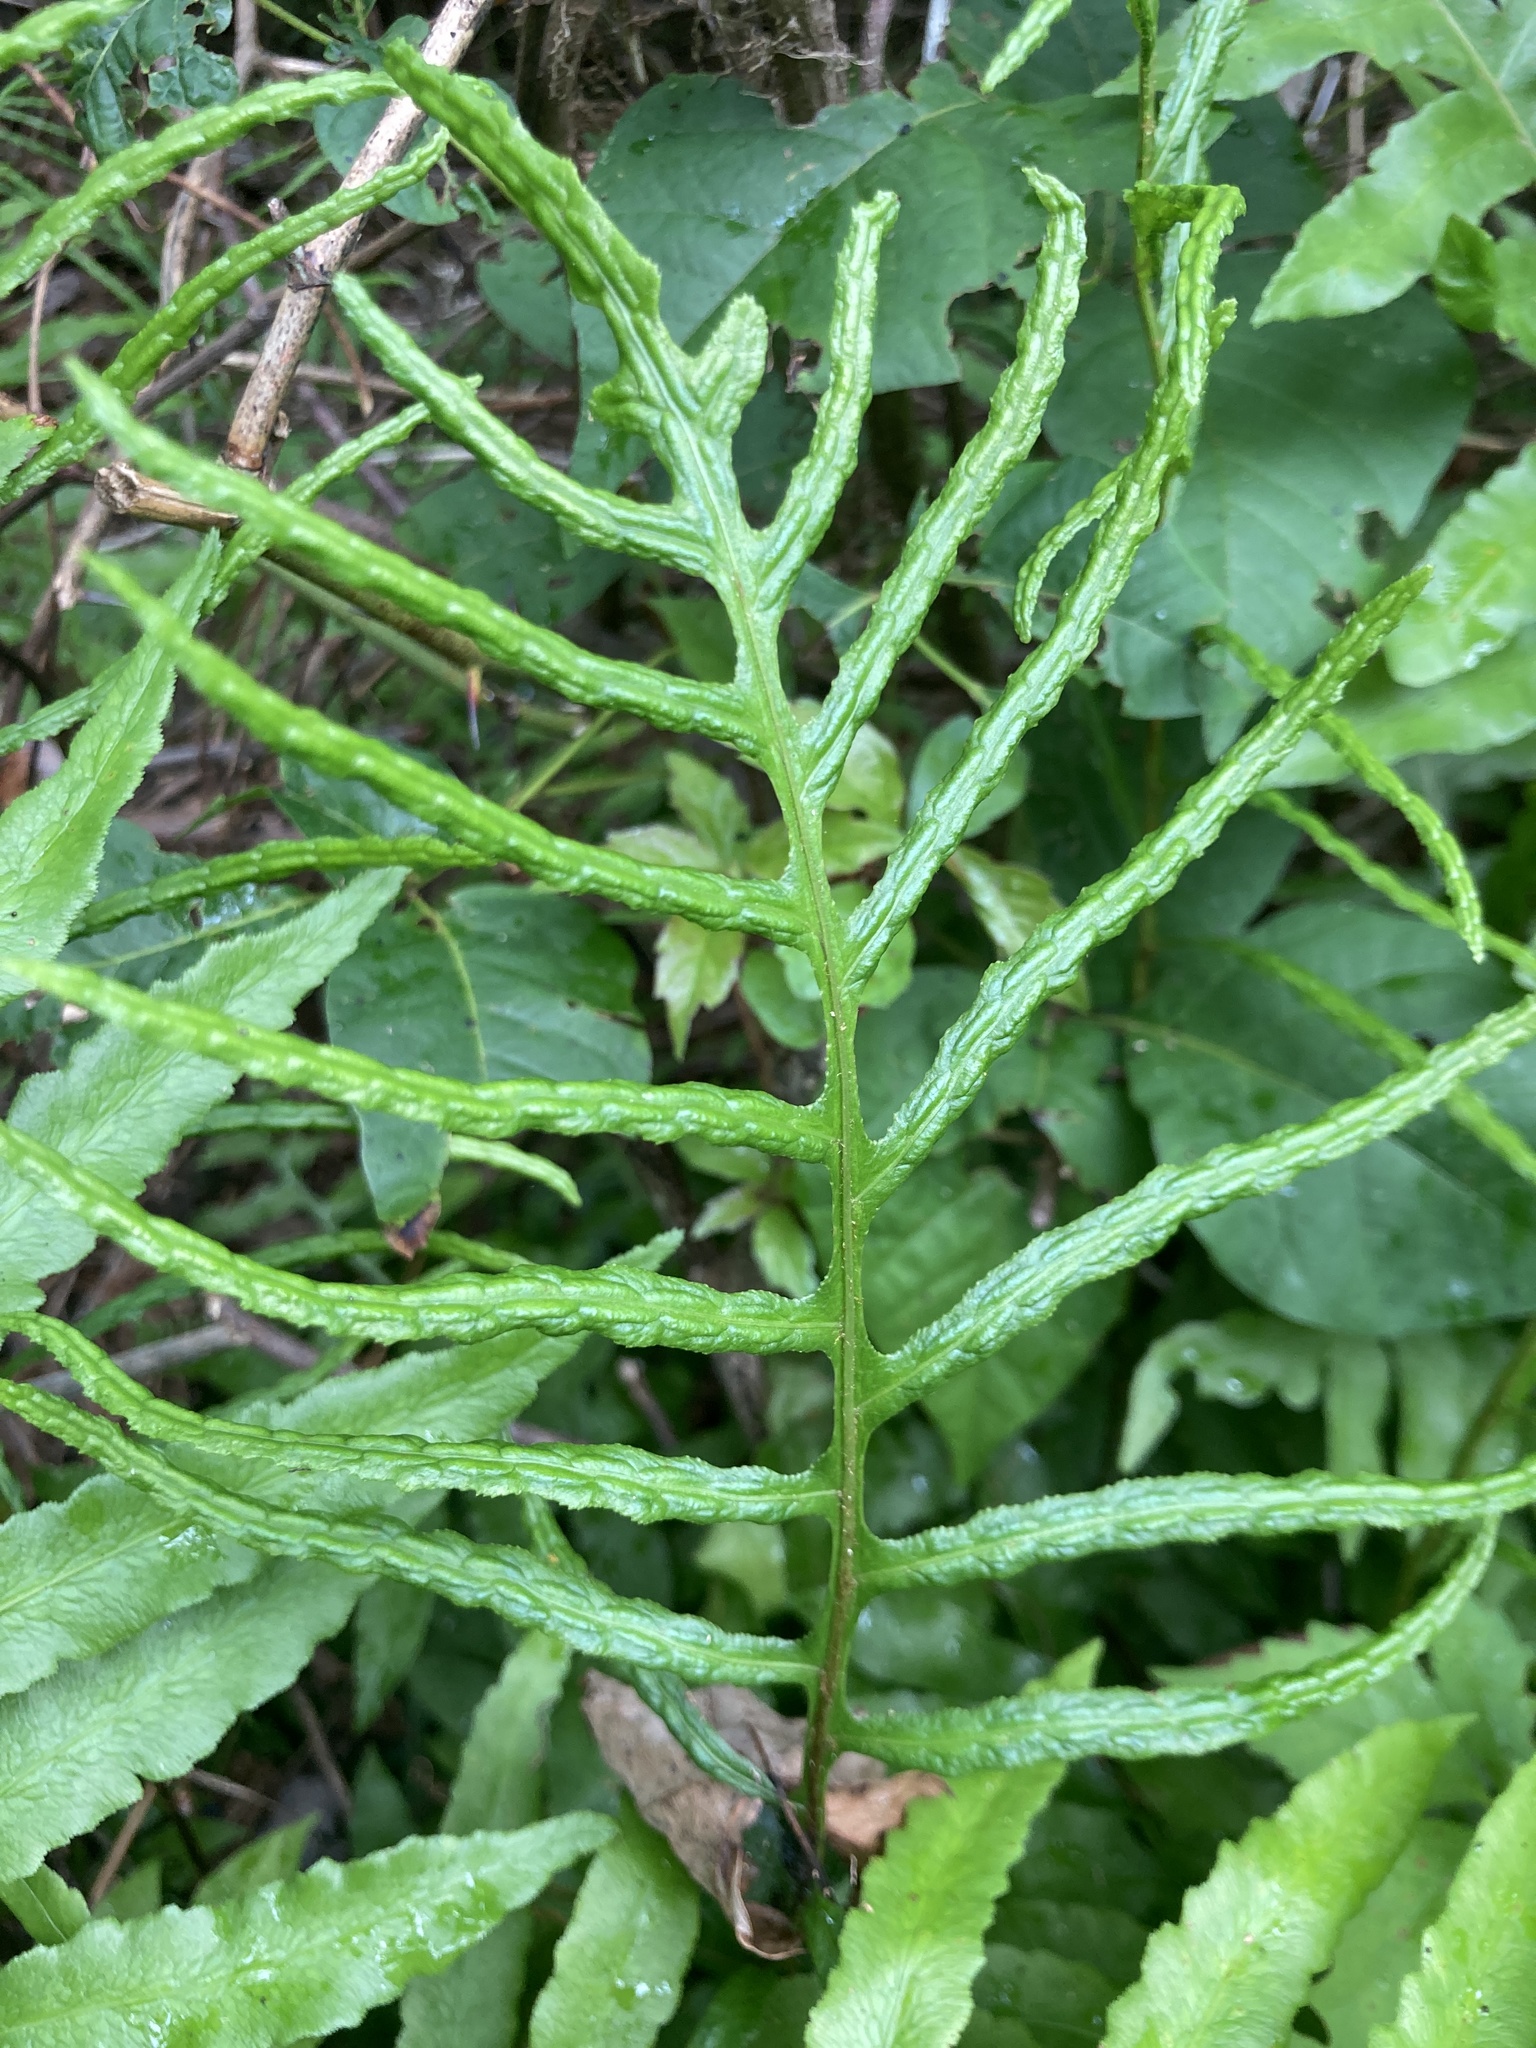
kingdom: Plantae
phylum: Tracheophyta
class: Polypodiopsida
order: Polypodiales
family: Blechnaceae
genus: Lorinseria
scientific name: Lorinseria areolata
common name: Dwarf chain fern
